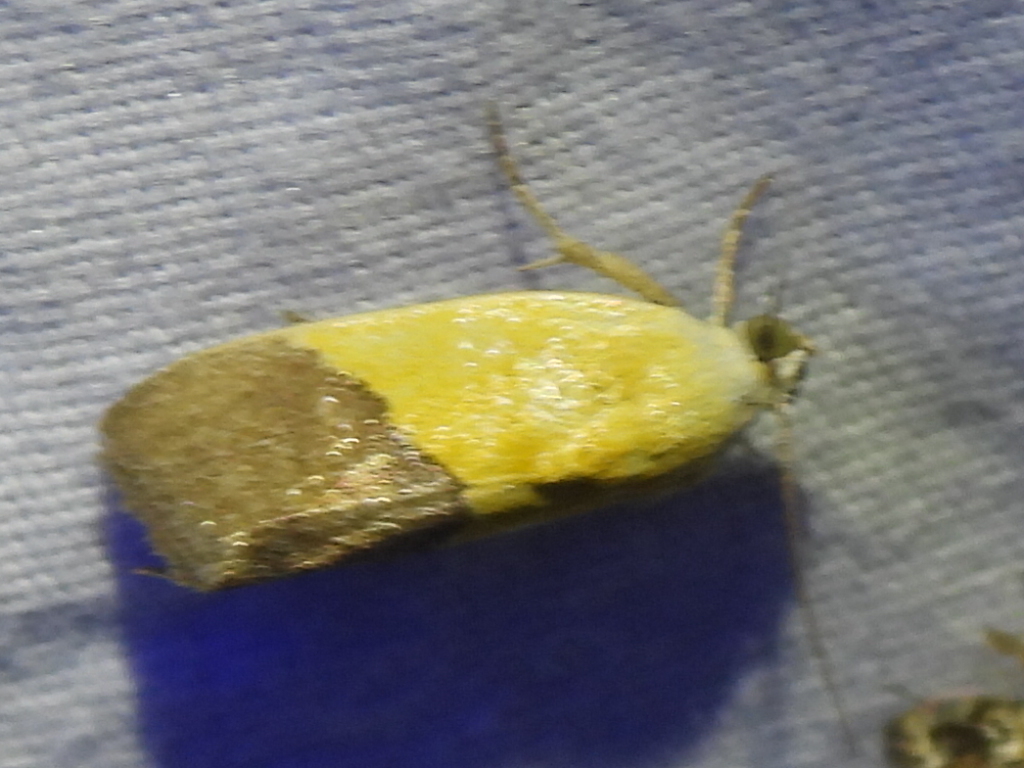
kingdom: Animalia
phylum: Arthropoda
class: Insecta
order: Lepidoptera
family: Noctuidae
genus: Acontia
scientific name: Acontia semiflava
